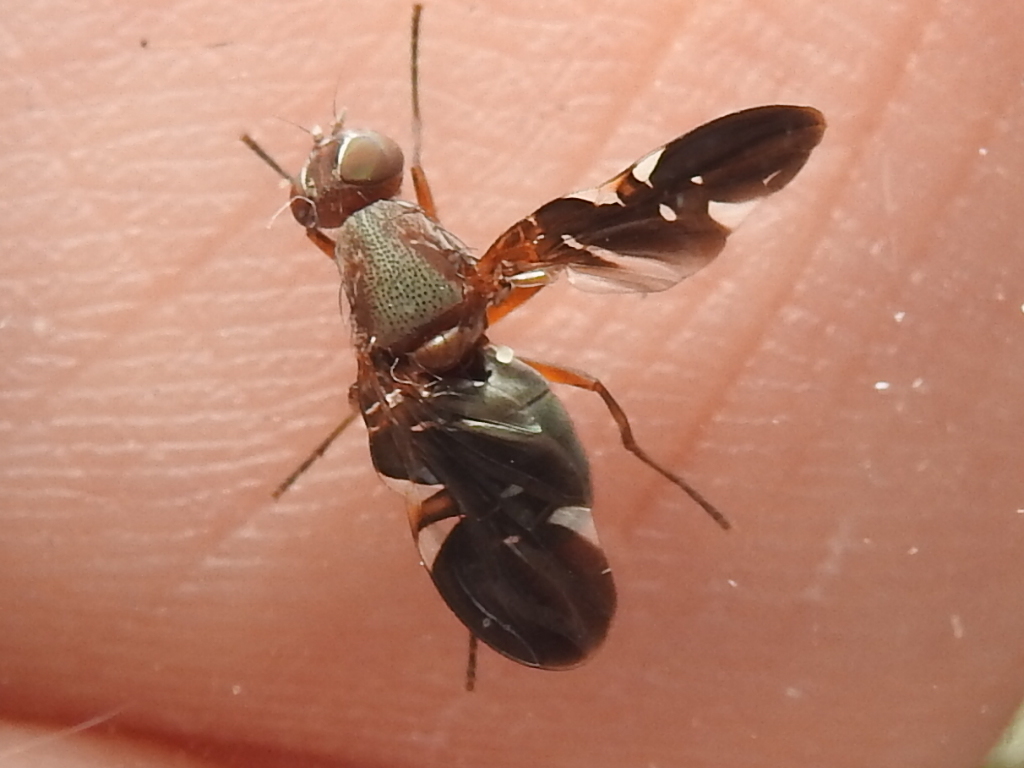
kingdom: Animalia
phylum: Arthropoda
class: Insecta
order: Diptera
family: Ulidiidae
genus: Delphinia
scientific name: Delphinia picta
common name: Common picture-winged fly
